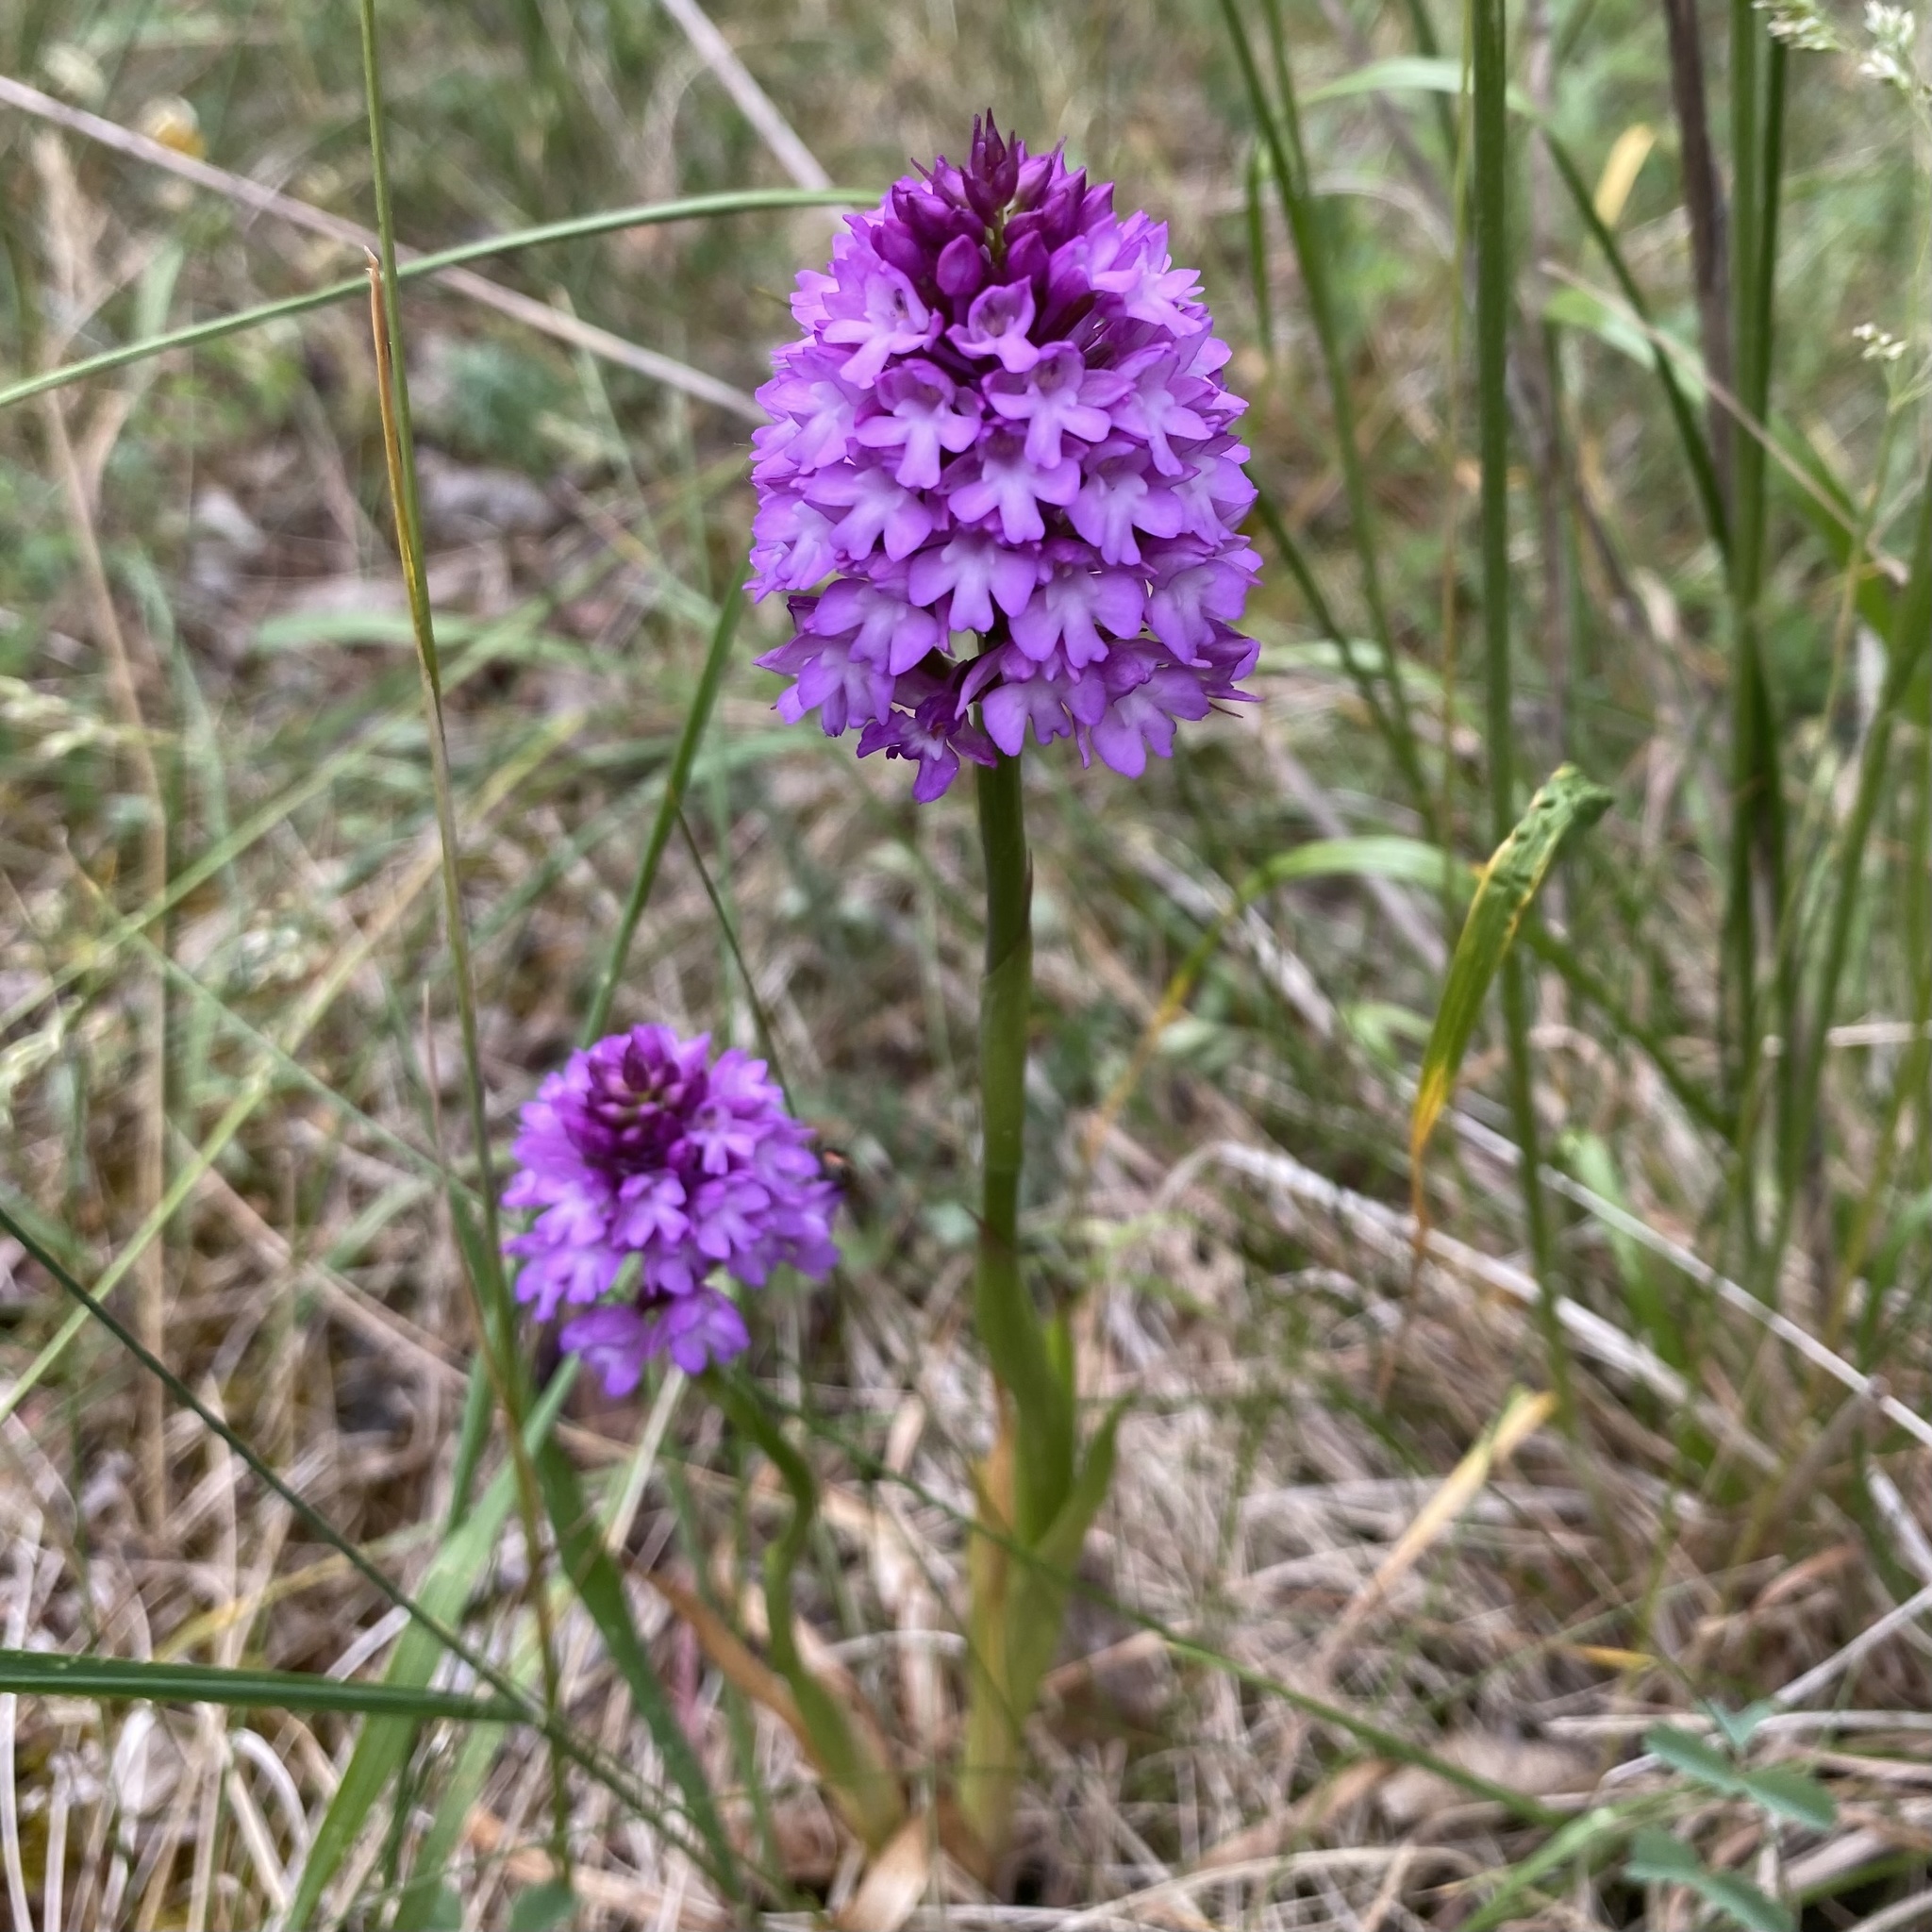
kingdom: Plantae
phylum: Tracheophyta
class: Liliopsida
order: Asparagales
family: Orchidaceae
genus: Anacamptis
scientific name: Anacamptis pyramidalis
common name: Pyramidal orchid
